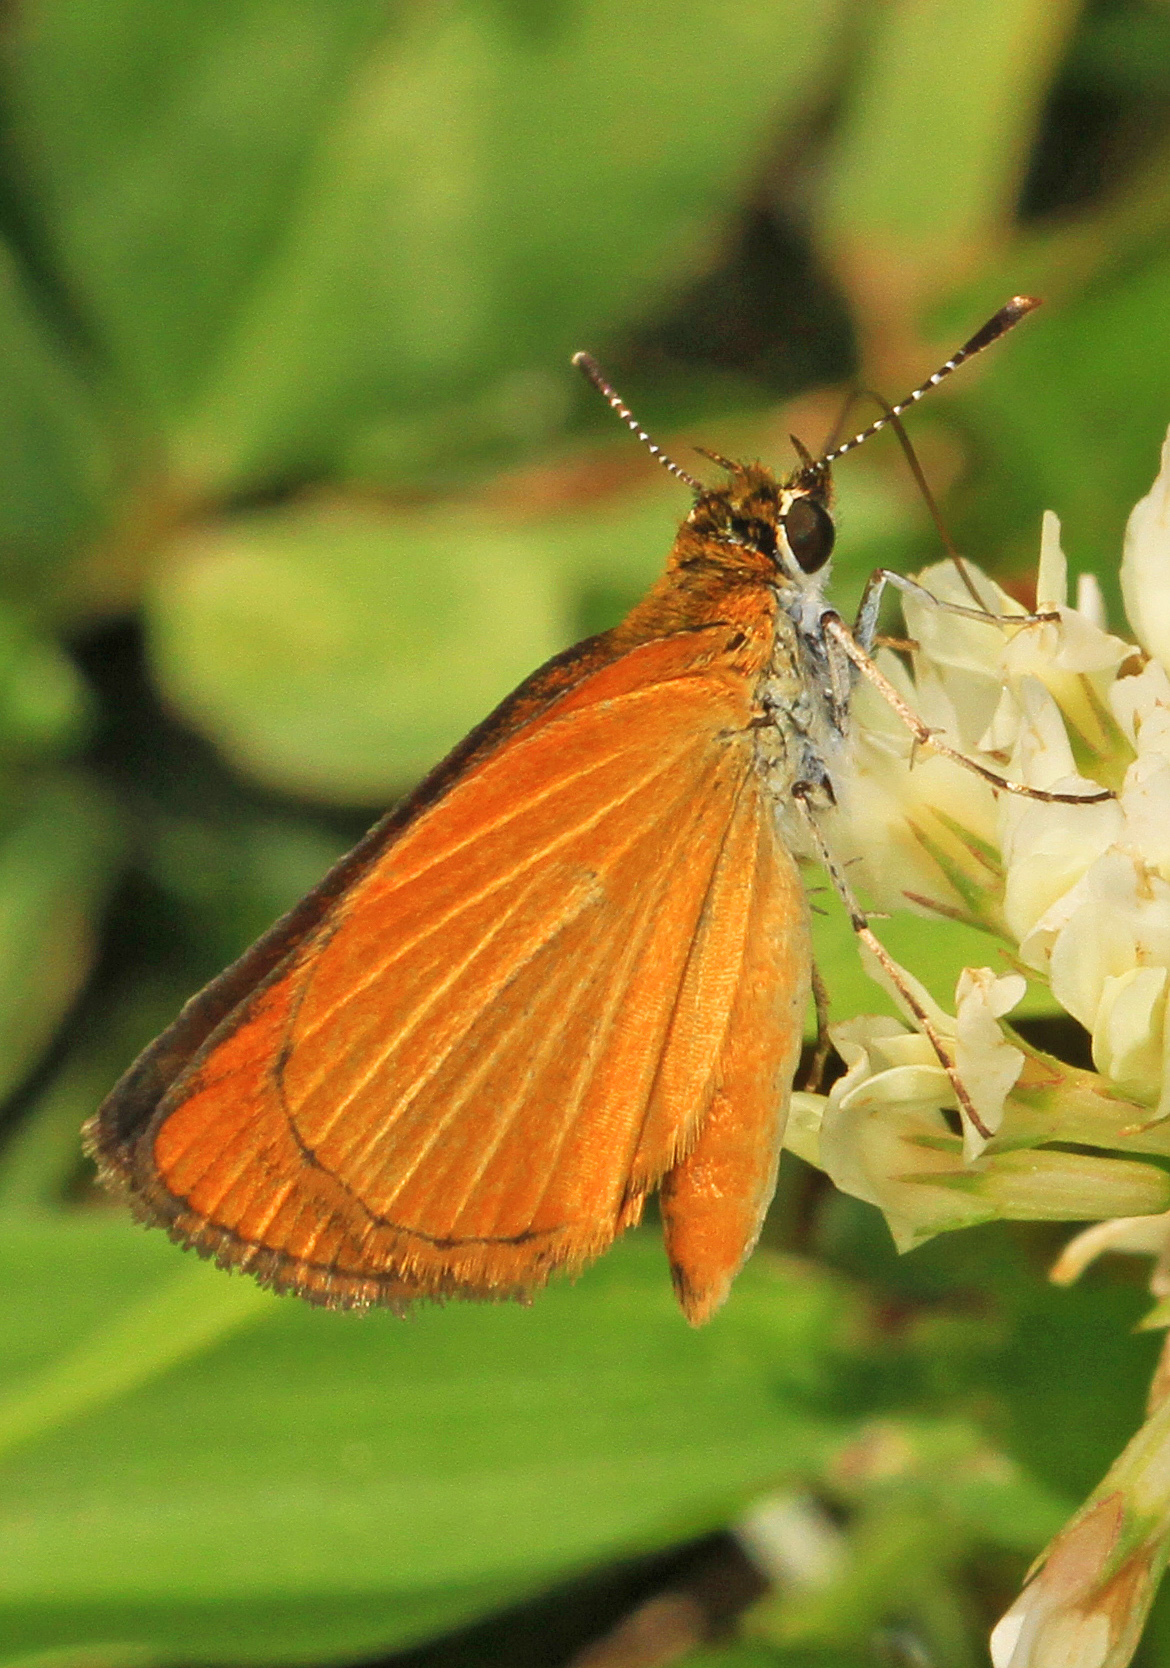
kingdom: Animalia
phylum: Arthropoda
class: Insecta
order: Lepidoptera
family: Hesperiidae
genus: Ancyloxypha
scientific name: Ancyloxypha numitor
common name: Least skipper
